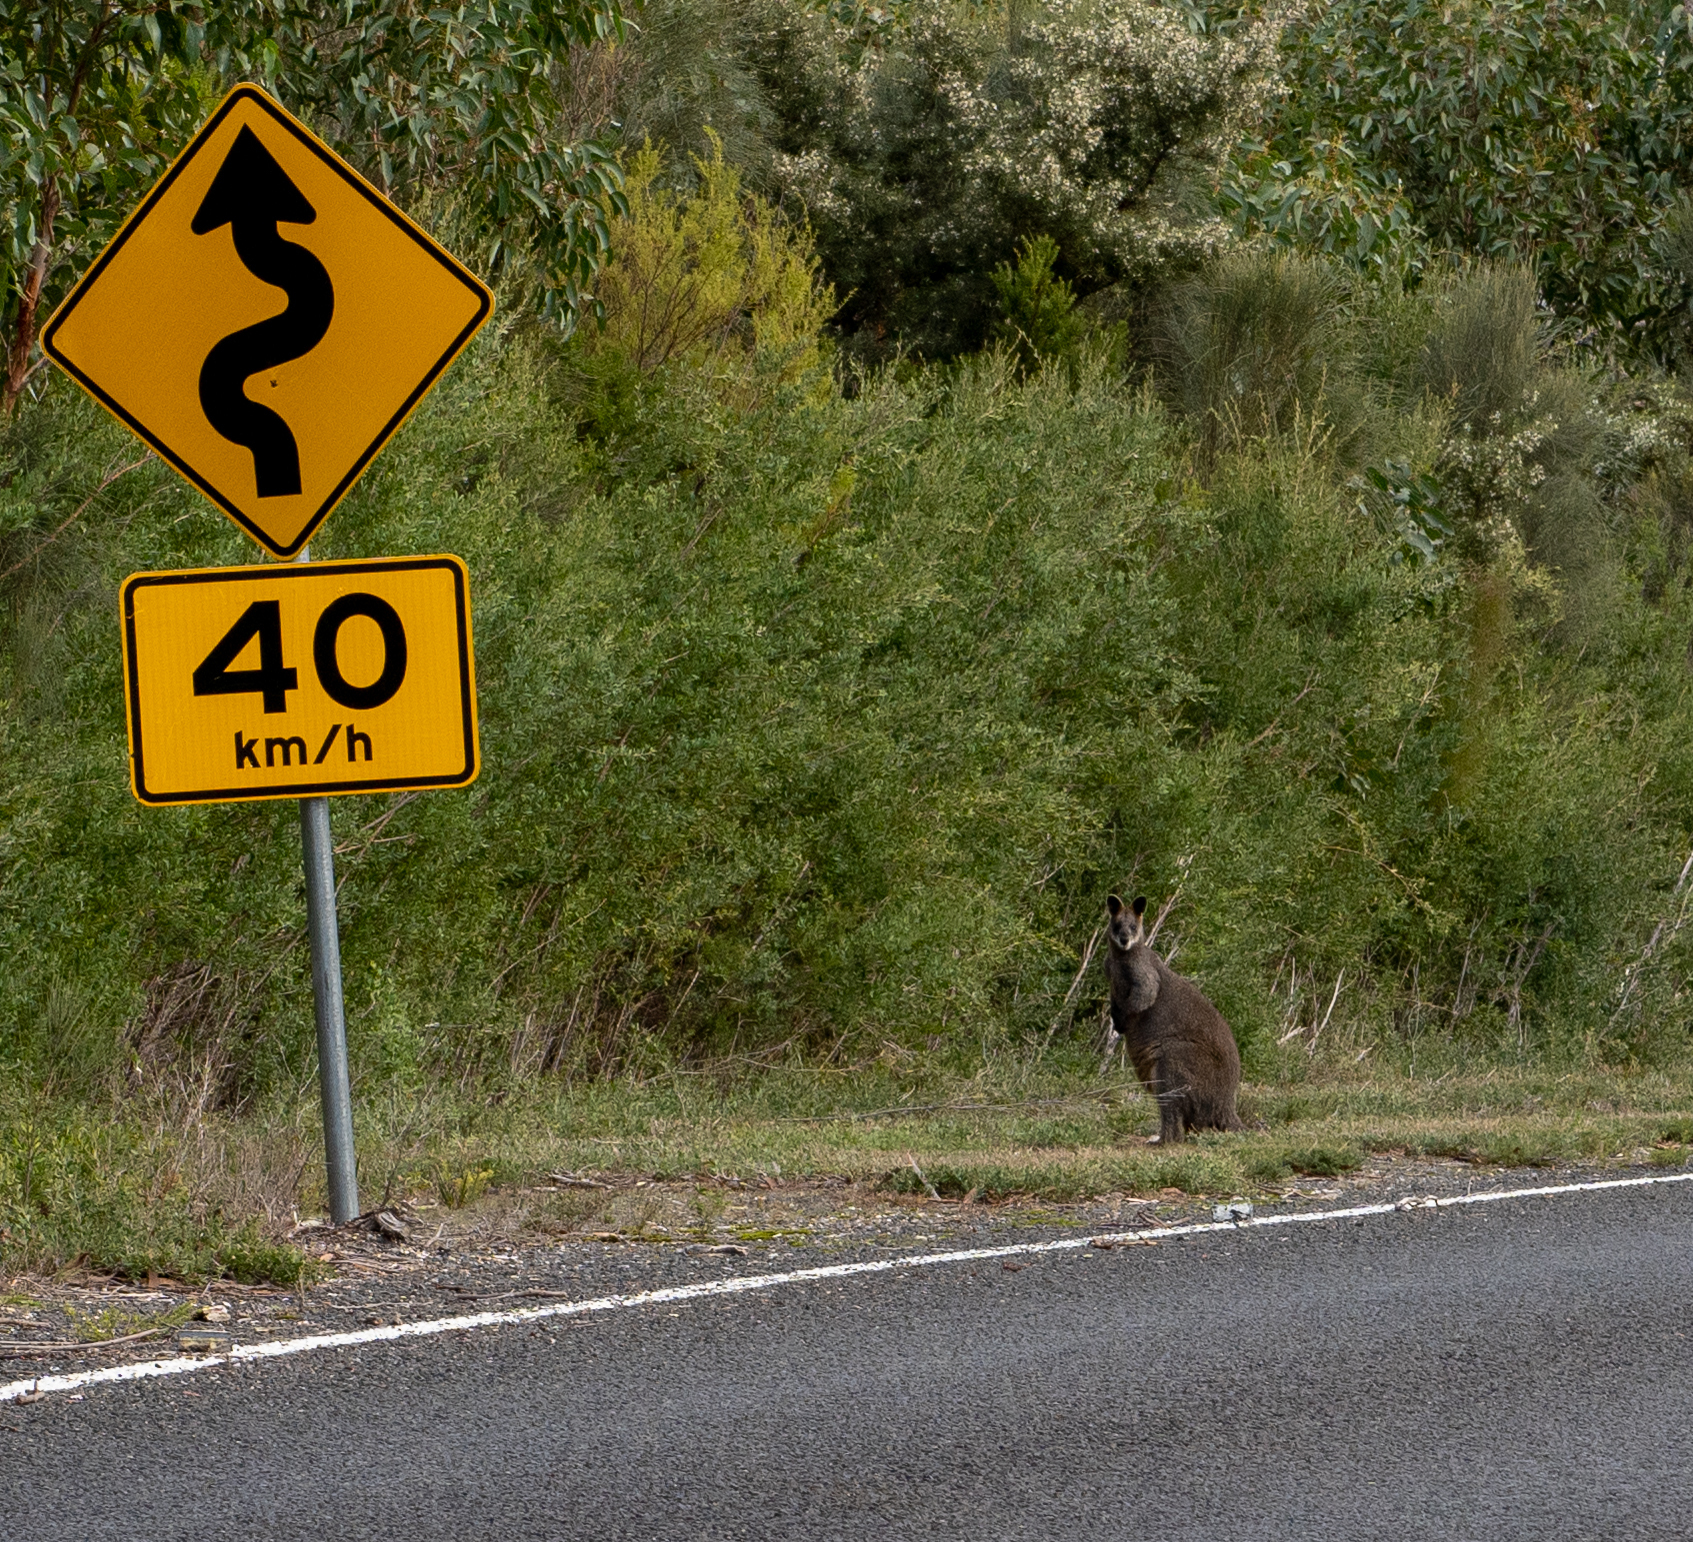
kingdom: Animalia
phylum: Chordata
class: Mammalia
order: Diprotodontia
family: Macropodidae
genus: Wallabia
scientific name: Wallabia bicolor
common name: Swamp wallaby
